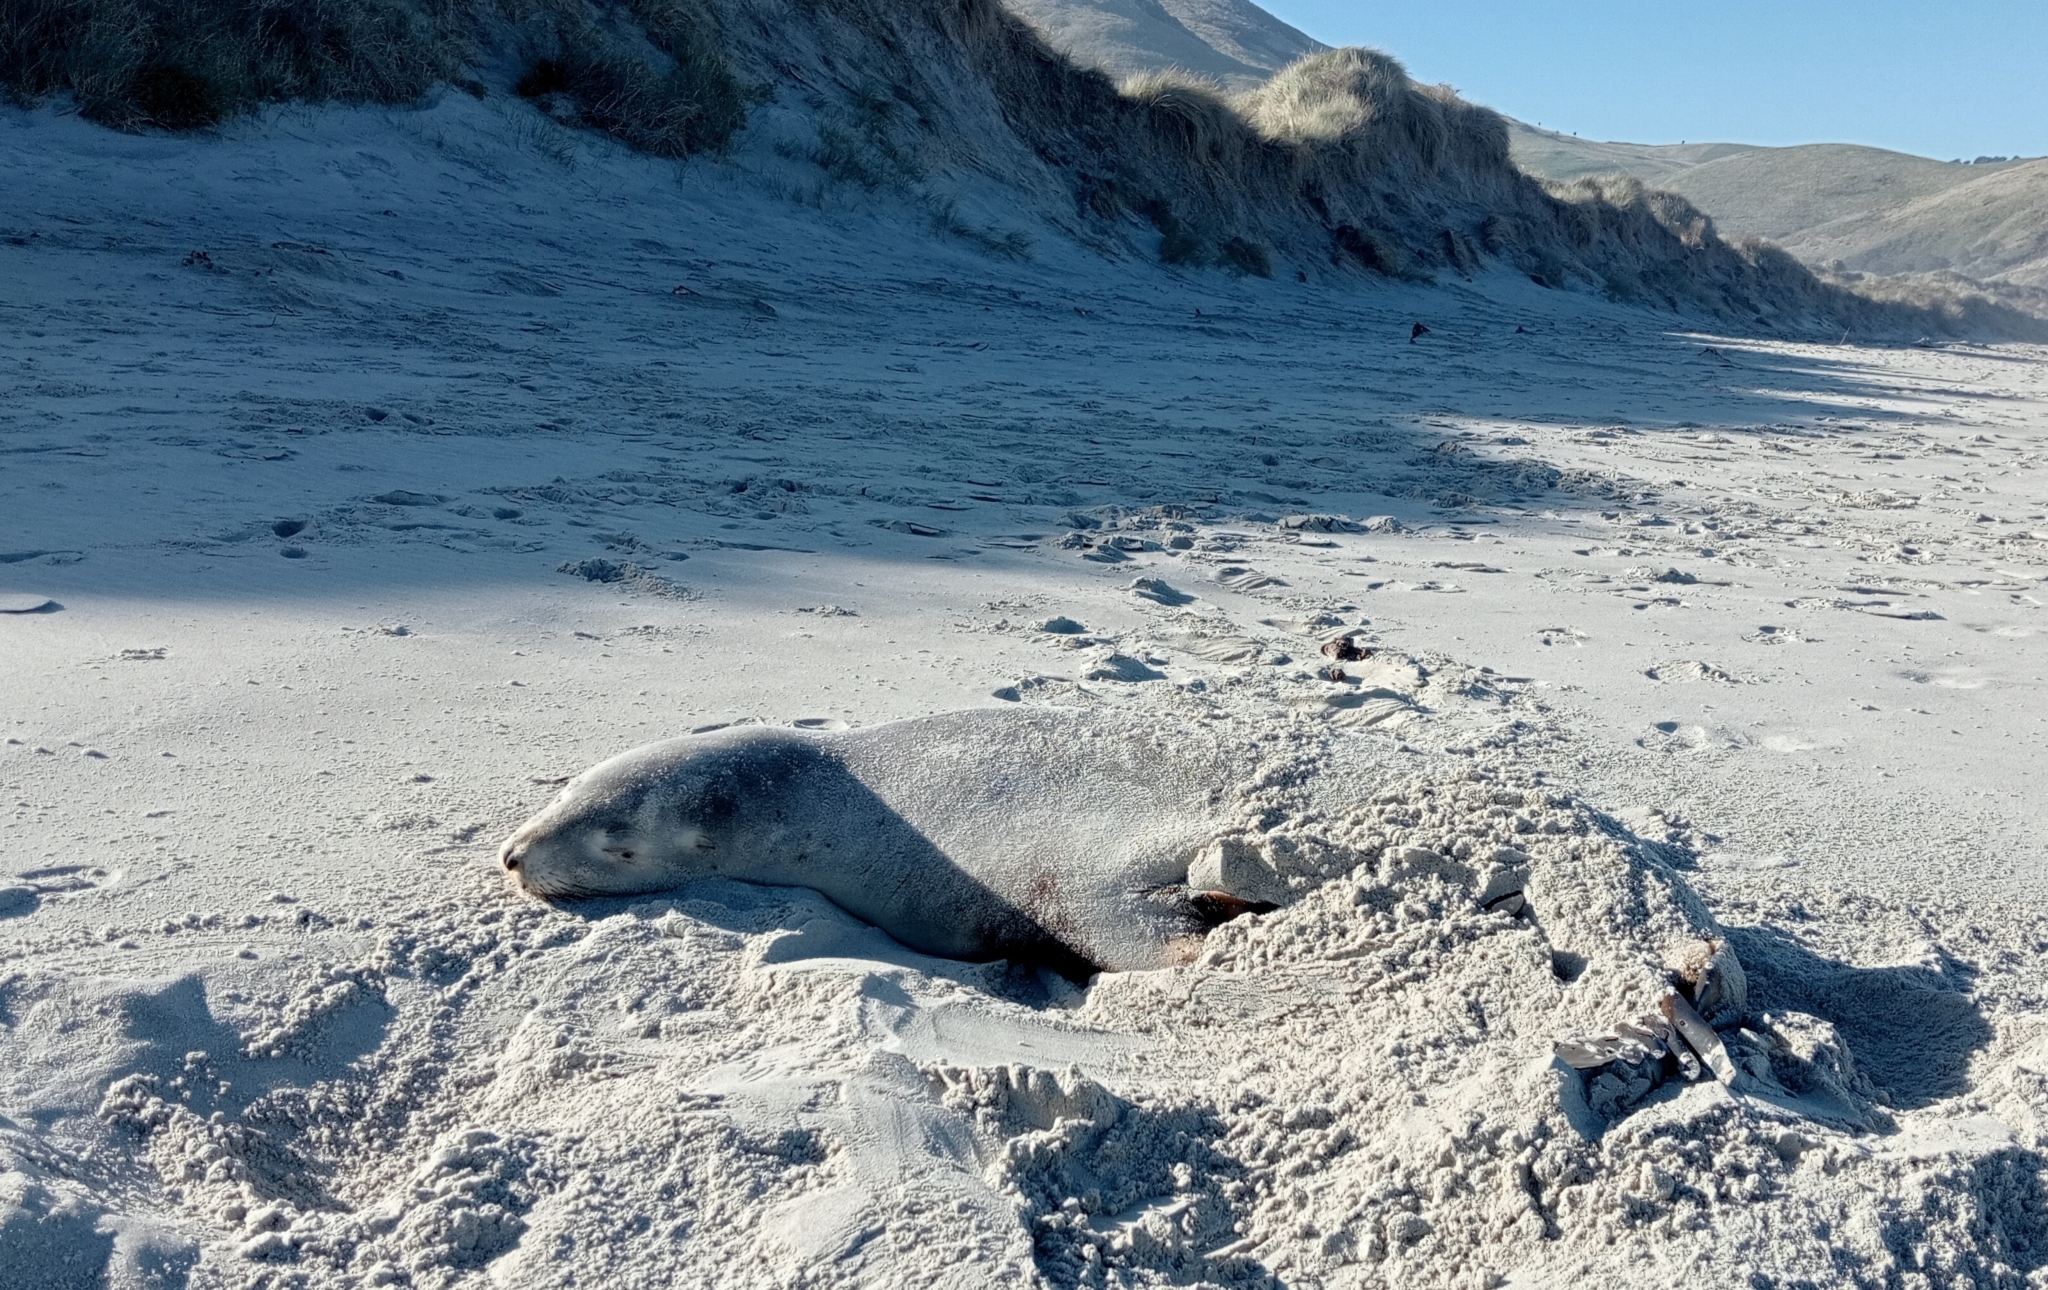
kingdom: Animalia
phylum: Chordata
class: Mammalia
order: Carnivora
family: Otariidae
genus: Phocarctos
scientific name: Phocarctos hookeri
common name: New zealand sea lion
